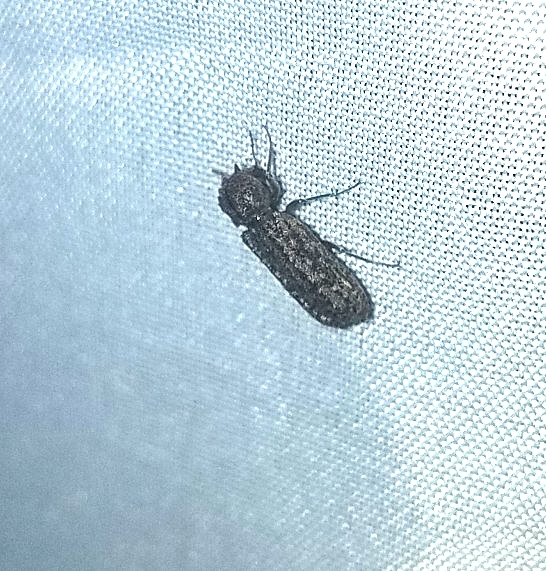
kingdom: Animalia
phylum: Arthropoda
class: Insecta
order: Coleoptera
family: Bostrichidae
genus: Lichenophanes
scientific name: Lichenophanes bicornis
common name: Two-horned powder-post beetle
